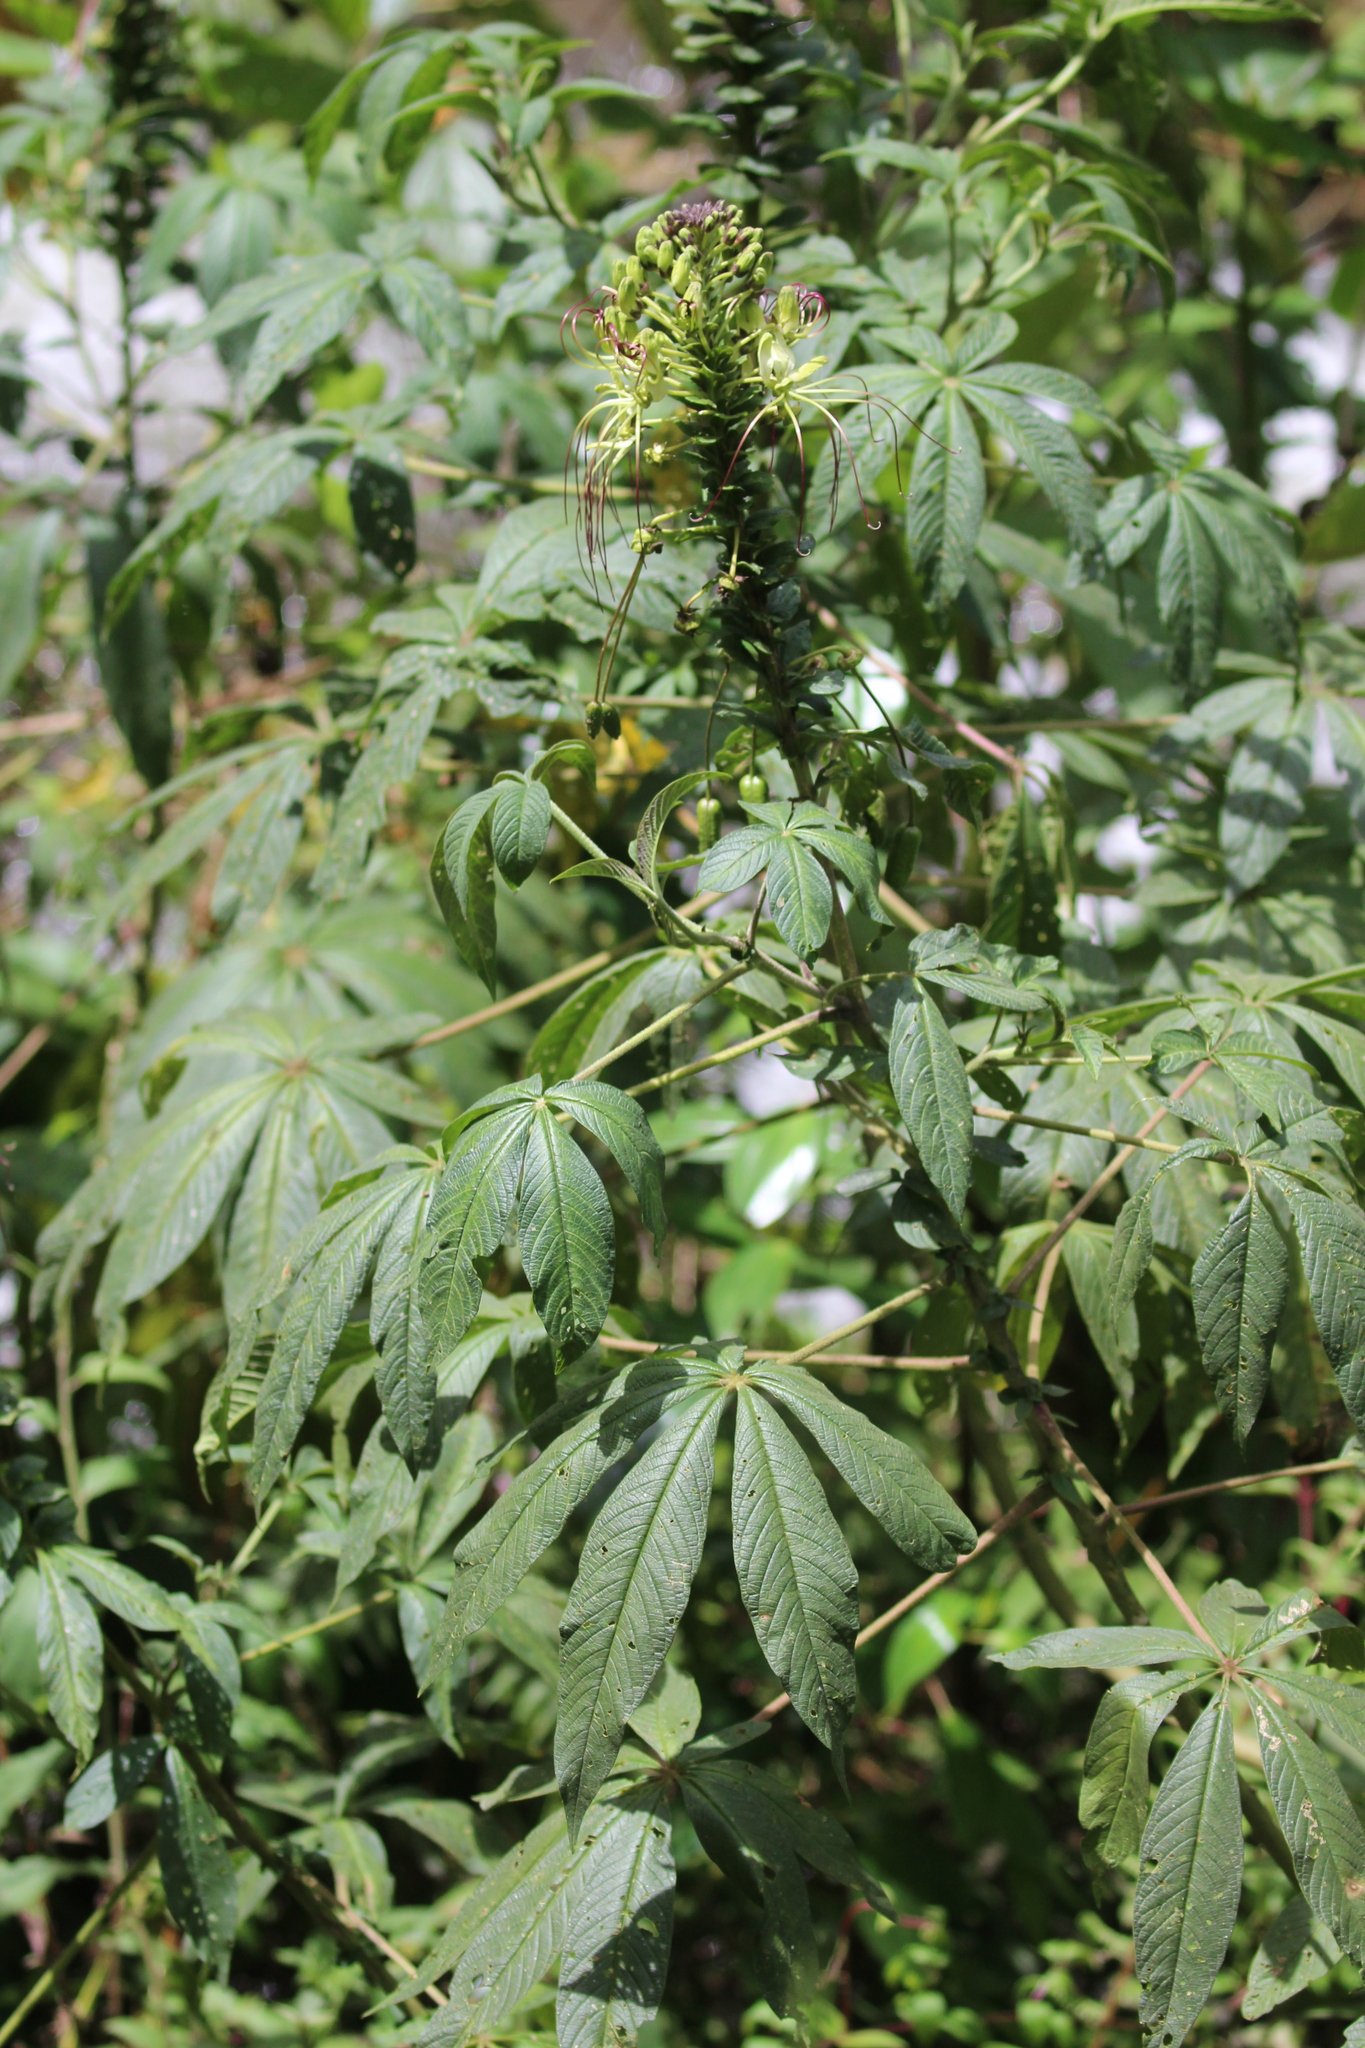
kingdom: Plantae
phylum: Tracheophyta
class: Magnoliopsida
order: Brassicales
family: Cleomaceae
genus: Andinocleome
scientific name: Andinocleome anomala
